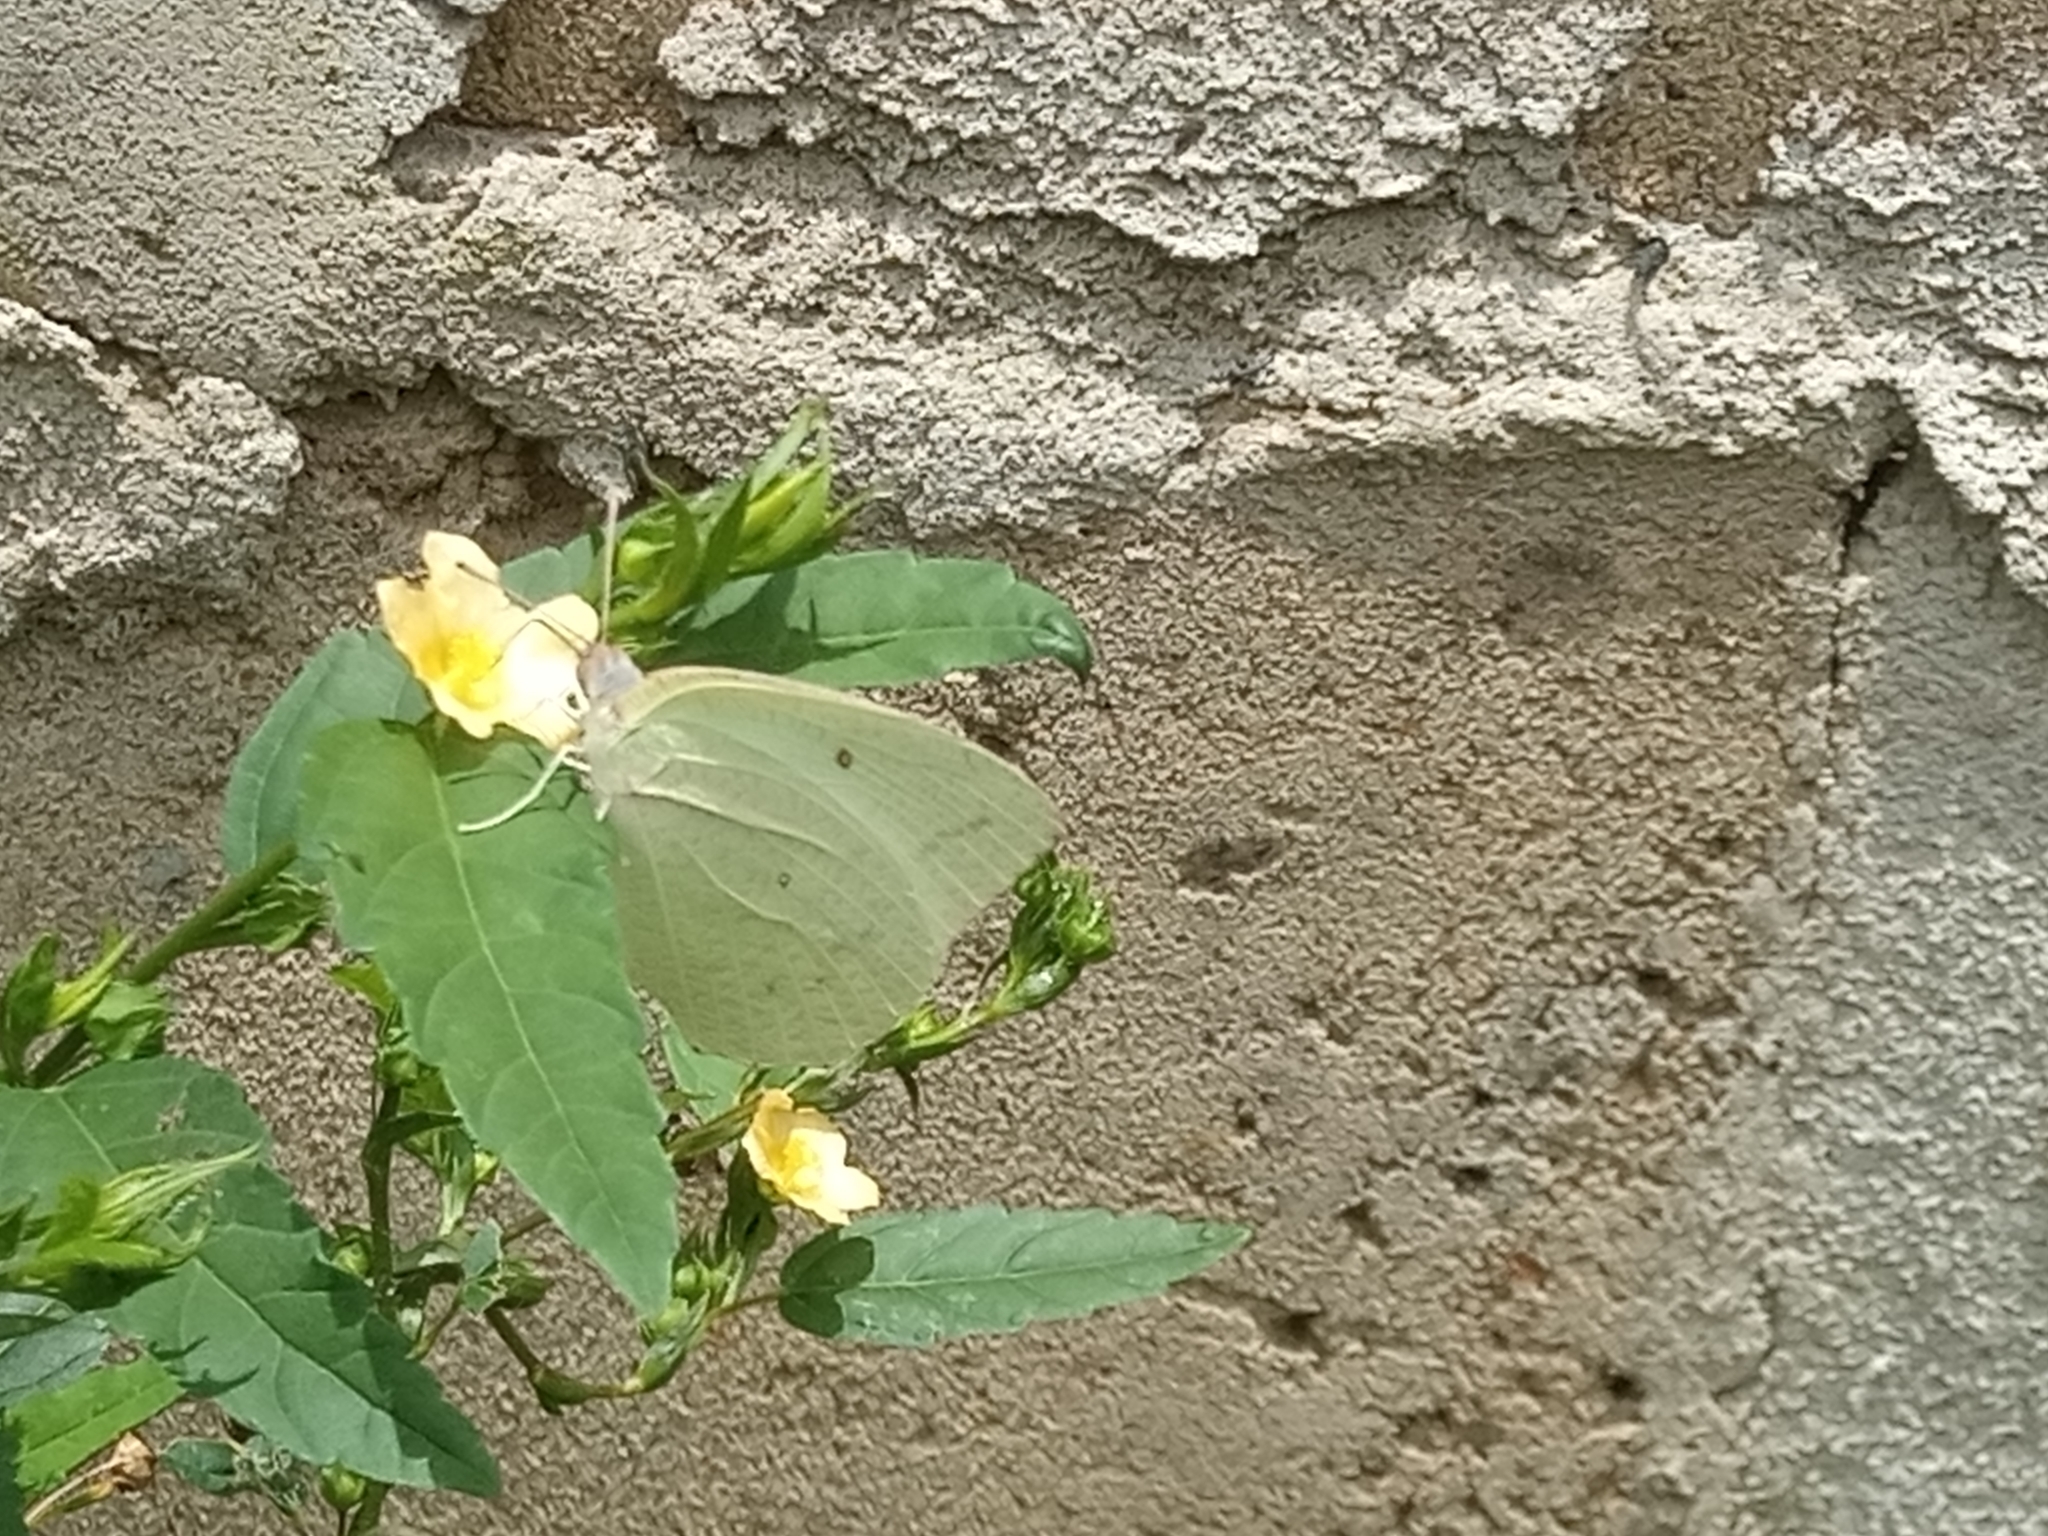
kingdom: Animalia
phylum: Arthropoda
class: Insecta
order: Lepidoptera
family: Pieridae
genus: Catopsilia
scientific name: Catopsilia florella
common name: African migrant
